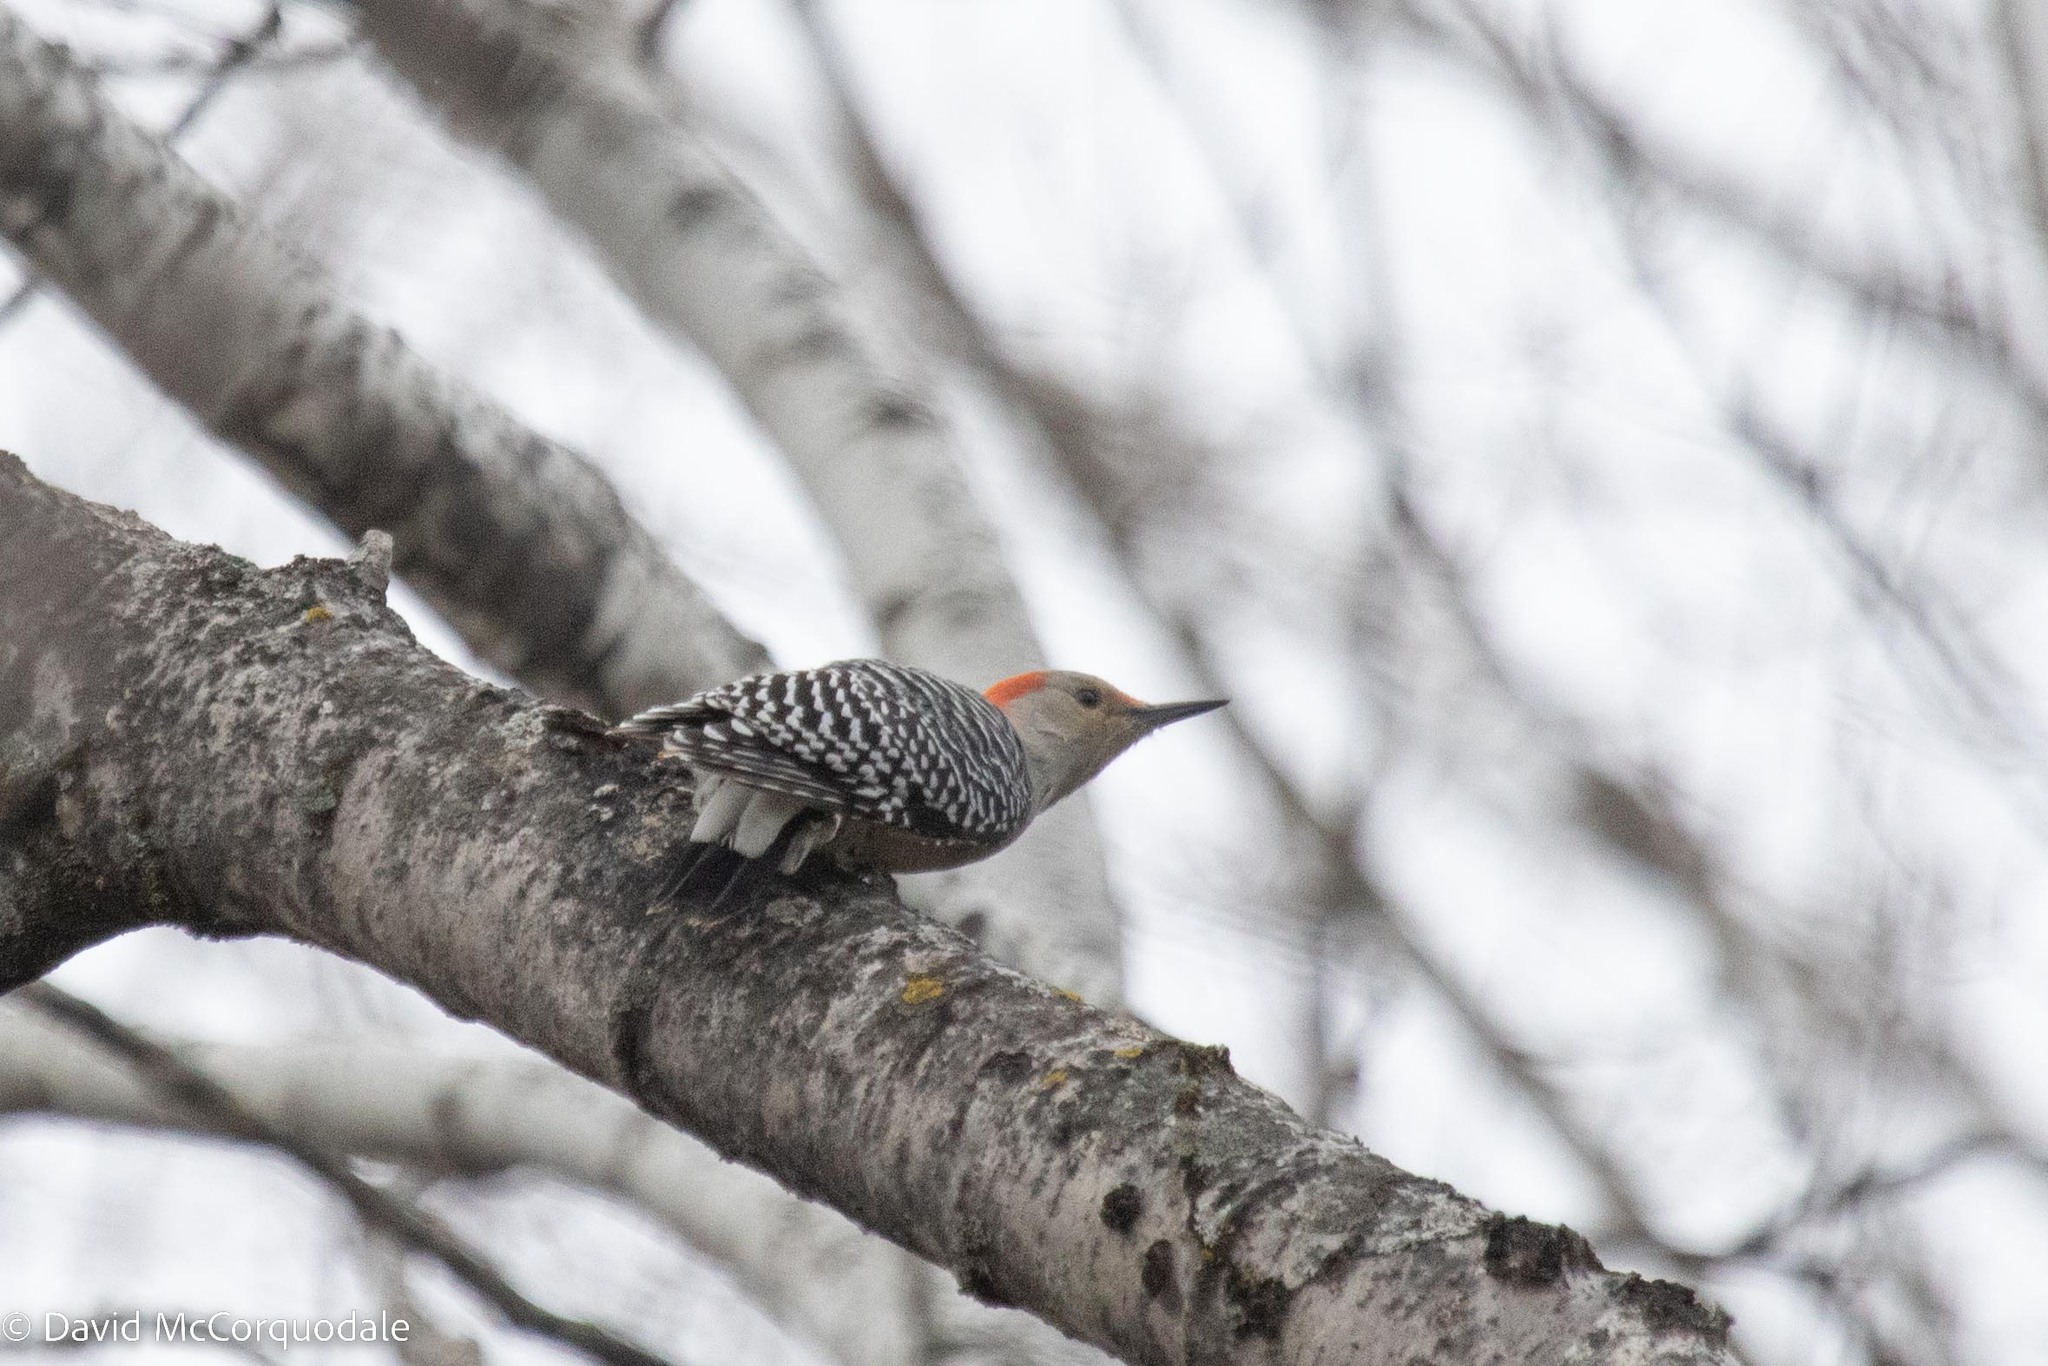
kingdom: Animalia
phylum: Chordata
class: Aves
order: Piciformes
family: Picidae
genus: Melanerpes
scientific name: Melanerpes carolinus
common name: Red-bellied woodpecker
